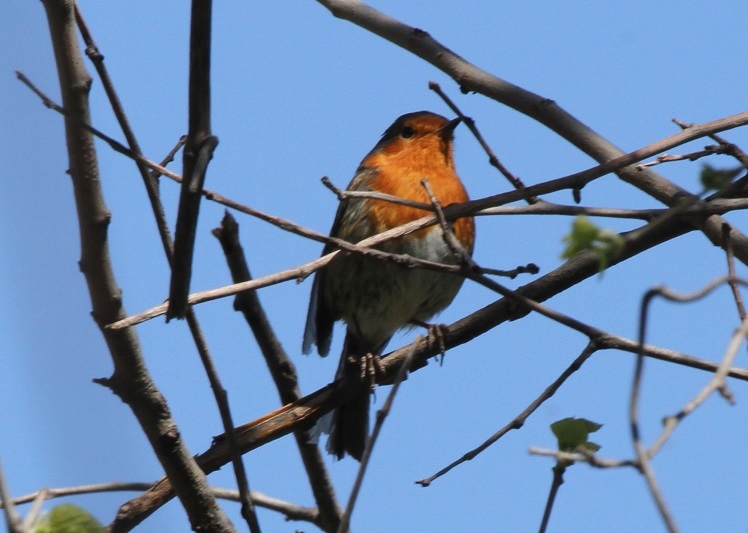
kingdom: Animalia
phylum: Chordata
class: Aves
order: Passeriformes
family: Muscicapidae
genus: Erithacus
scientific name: Erithacus rubecula
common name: European robin
